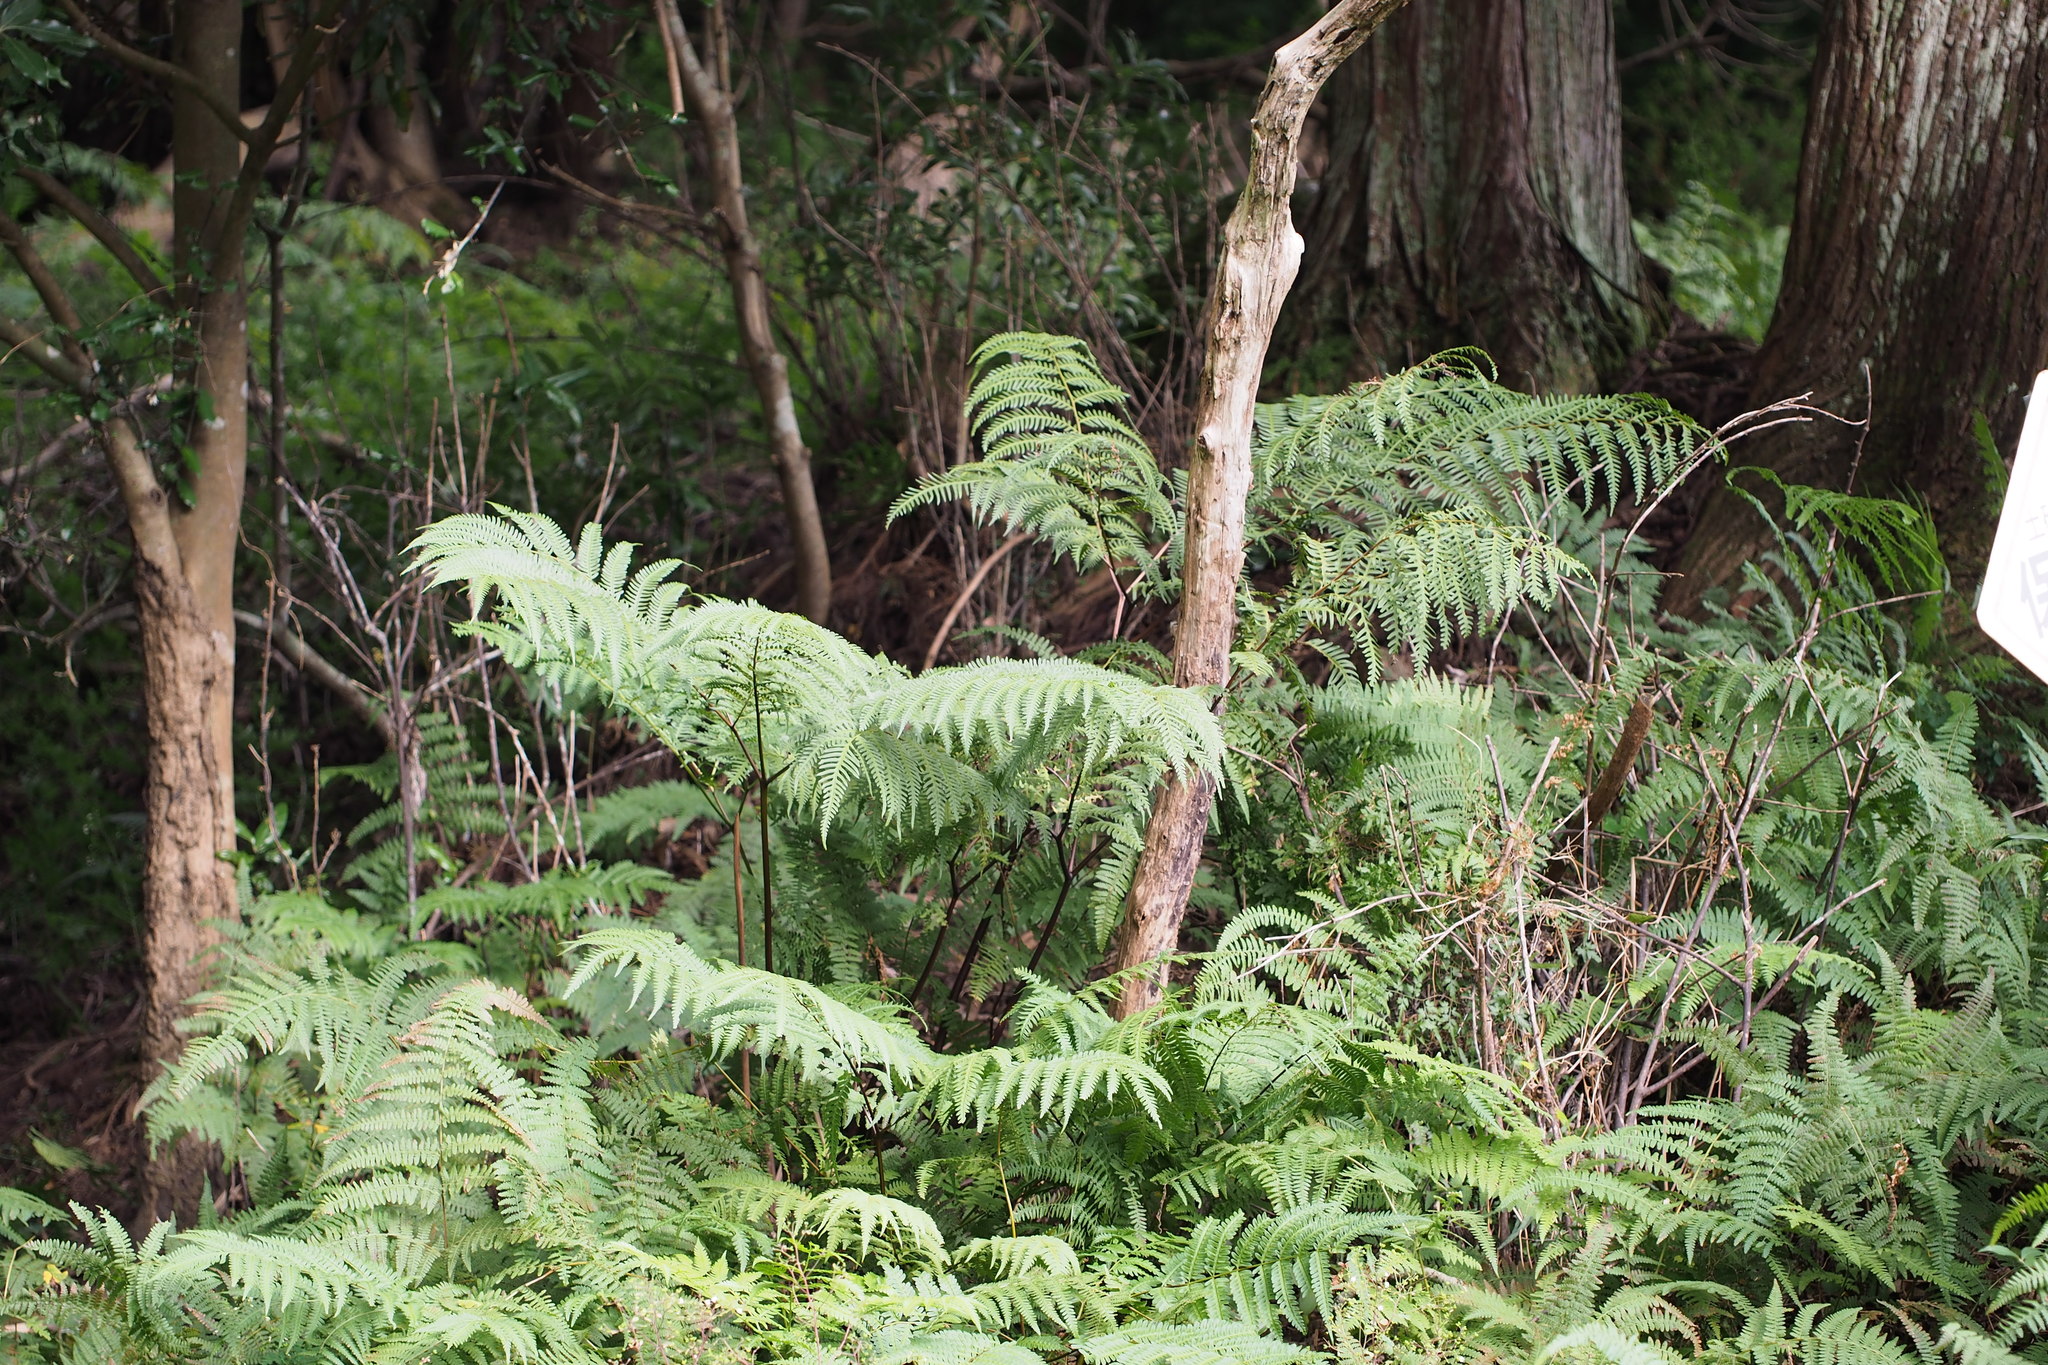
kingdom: Plantae
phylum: Tracheophyta
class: Polypodiopsida
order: Polypodiales
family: Pteridaceae
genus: Pteris
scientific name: Pteris wallichiana
